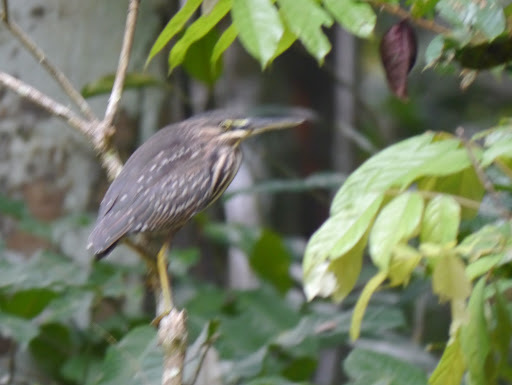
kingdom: Animalia
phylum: Chordata
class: Aves
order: Pelecaniformes
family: Ardeidae
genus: Butorides
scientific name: Butorides striata
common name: Striated heron
